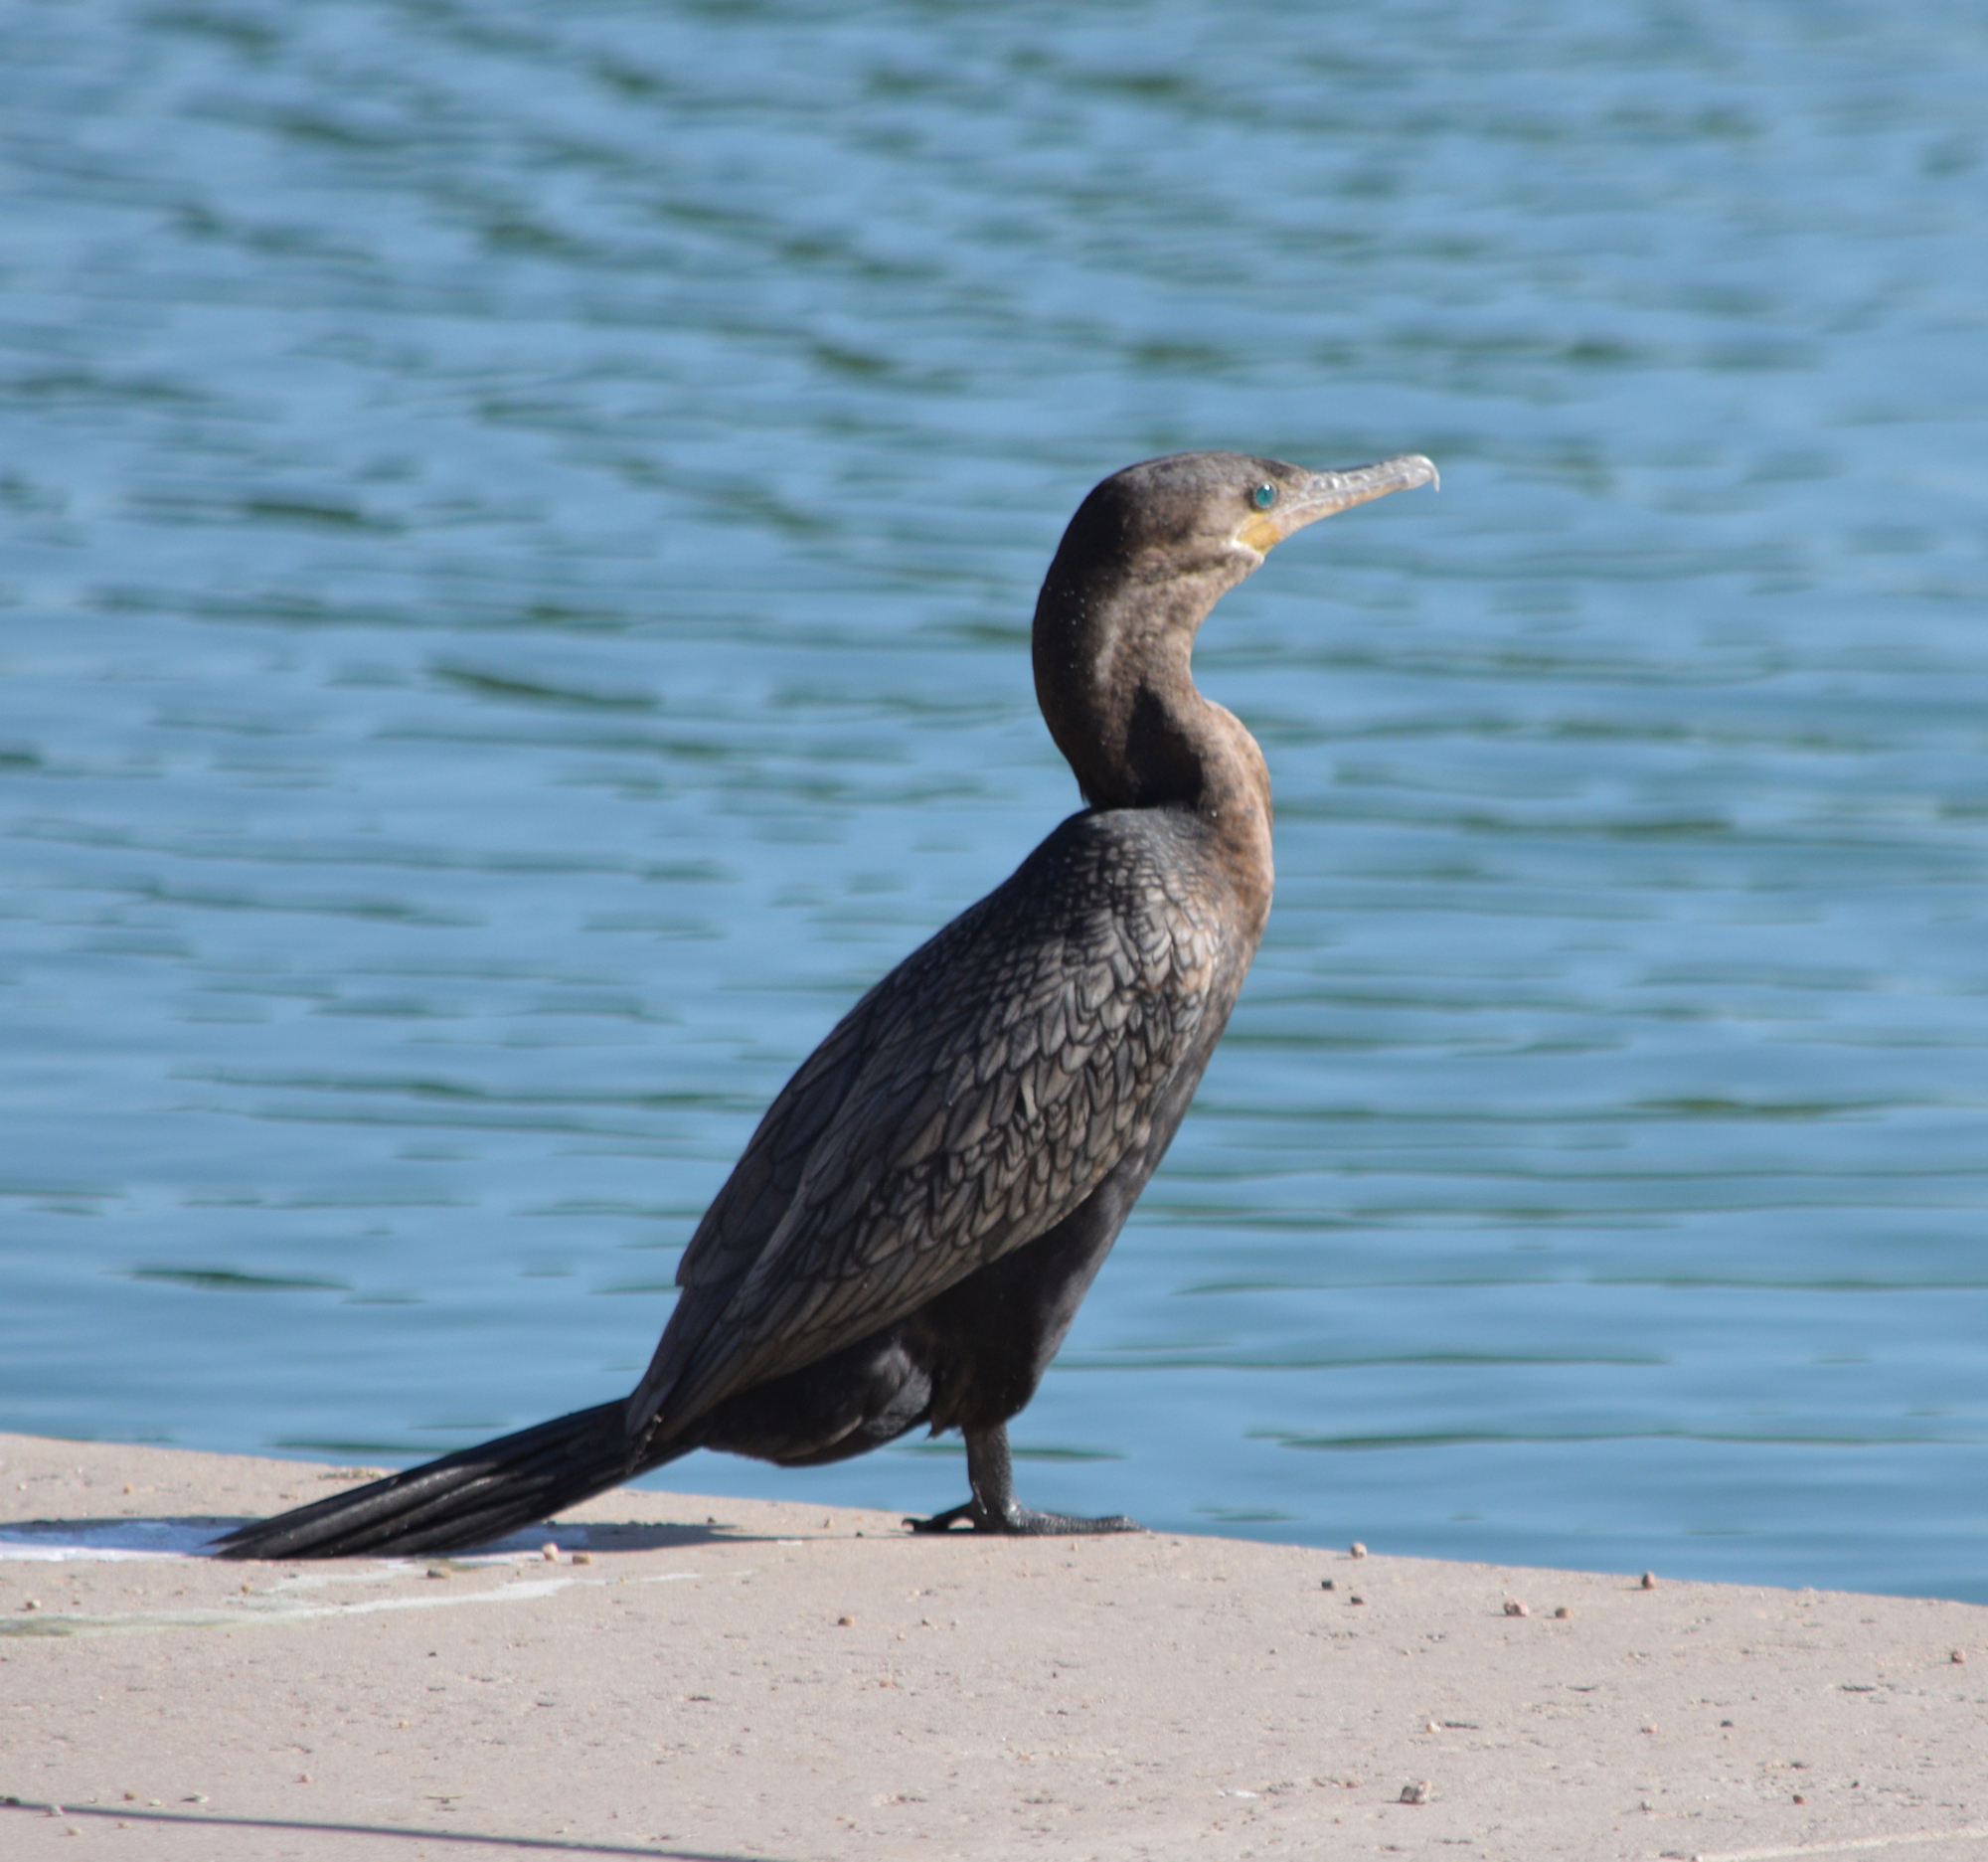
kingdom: Animalia
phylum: Chordata
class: Aves
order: Suliformes
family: Phalacrocoracidae
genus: Phalacrocorax
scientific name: Phalacrocorax brasilianus
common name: Neotropic cormorant
